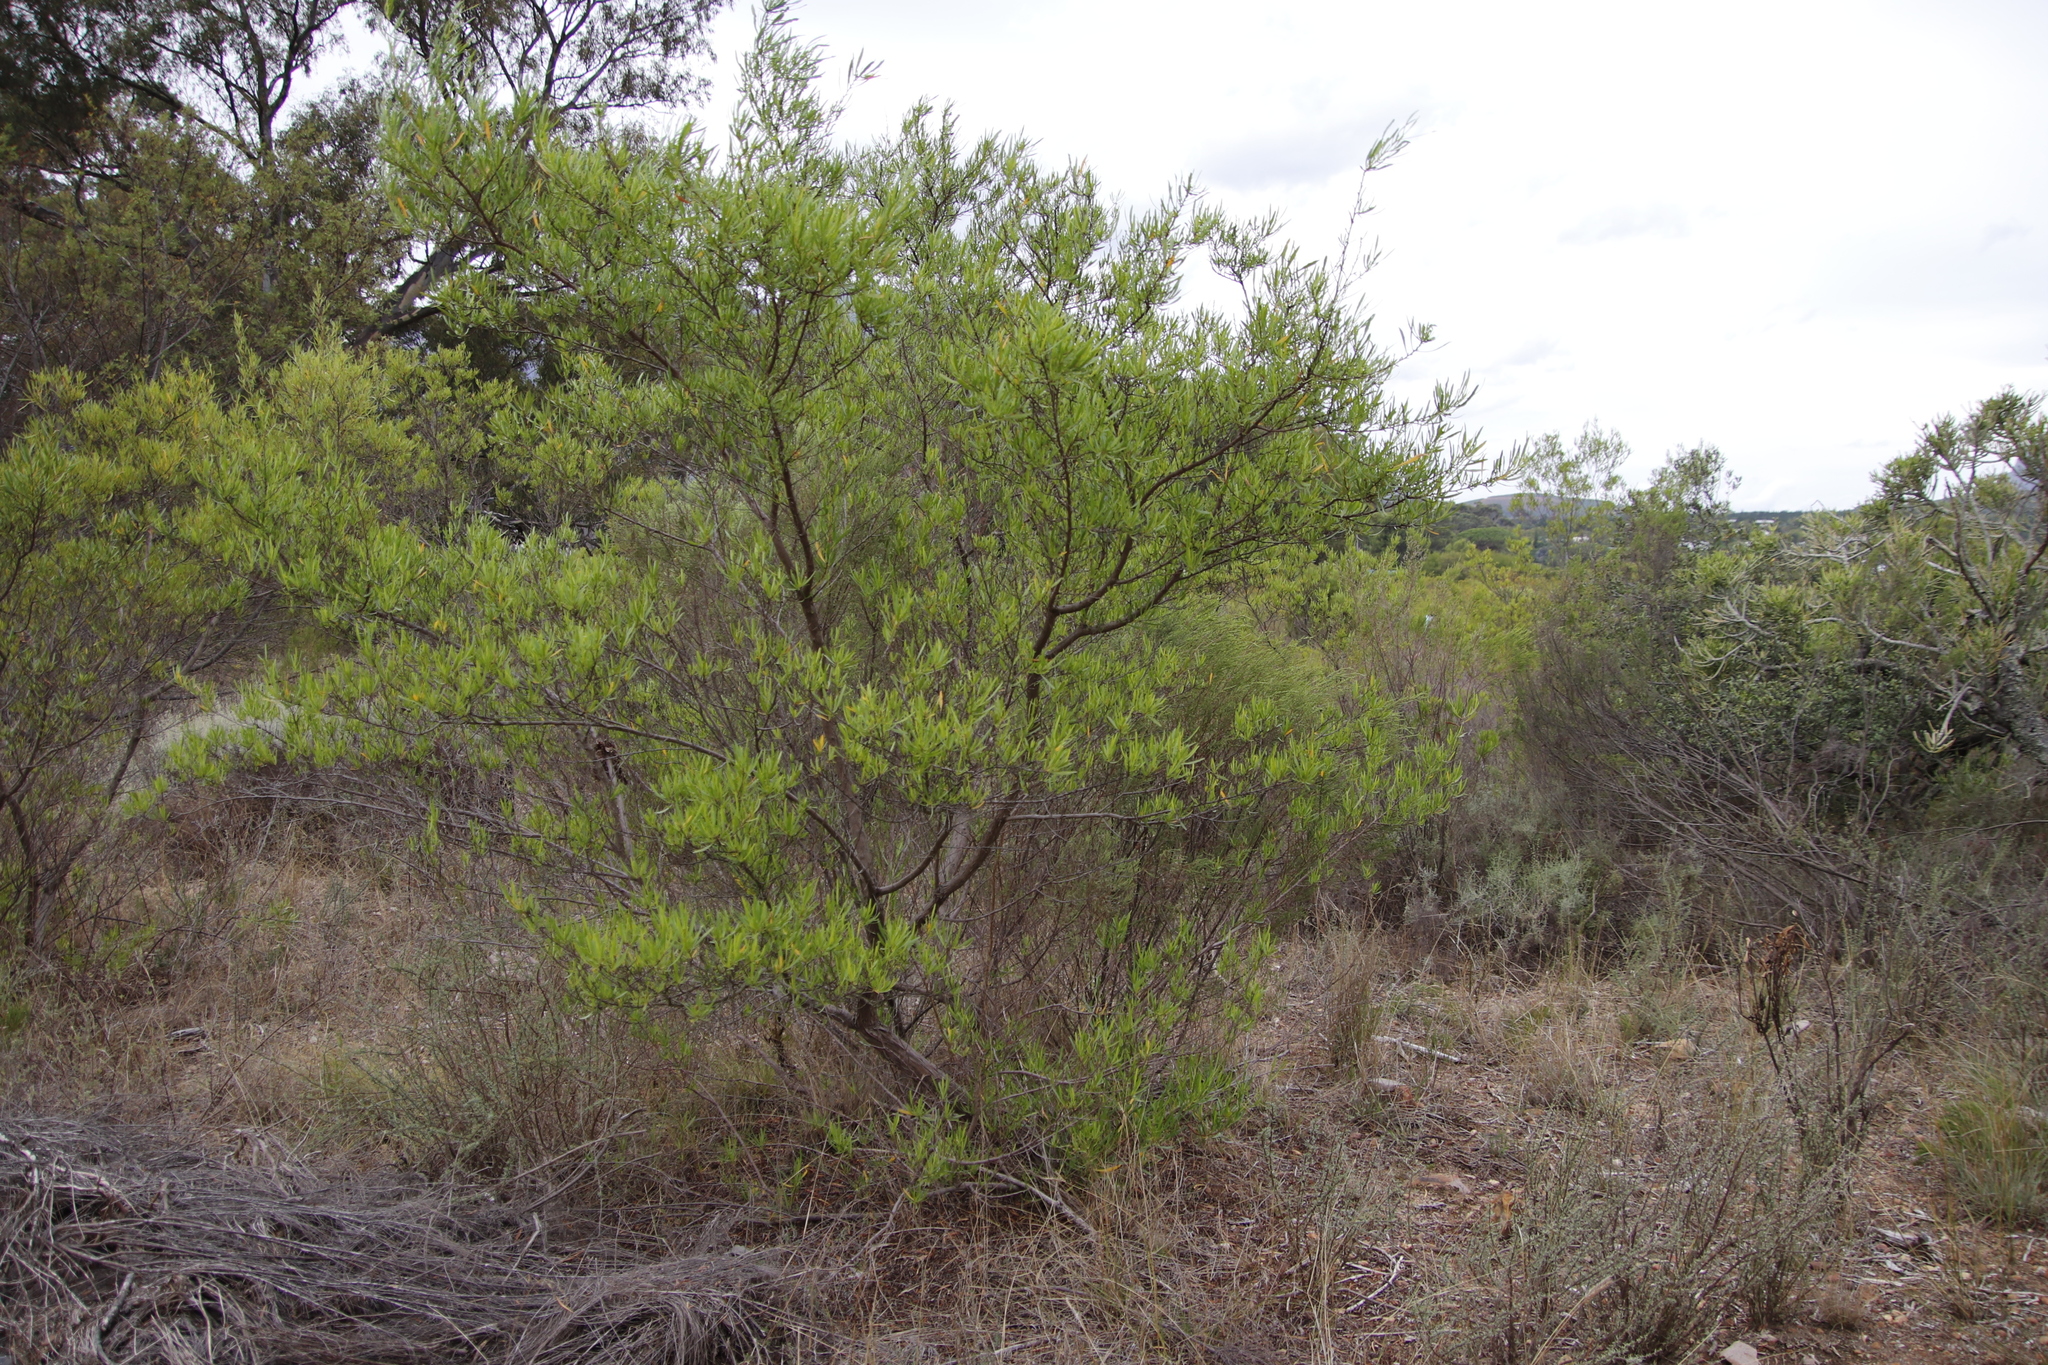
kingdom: Plantae
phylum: Tracheophyta
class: Magnoliopsida
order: Sapindales
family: Sapindaceae
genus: Dodonaea
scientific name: Dodonaea viscosa
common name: Hopbush
